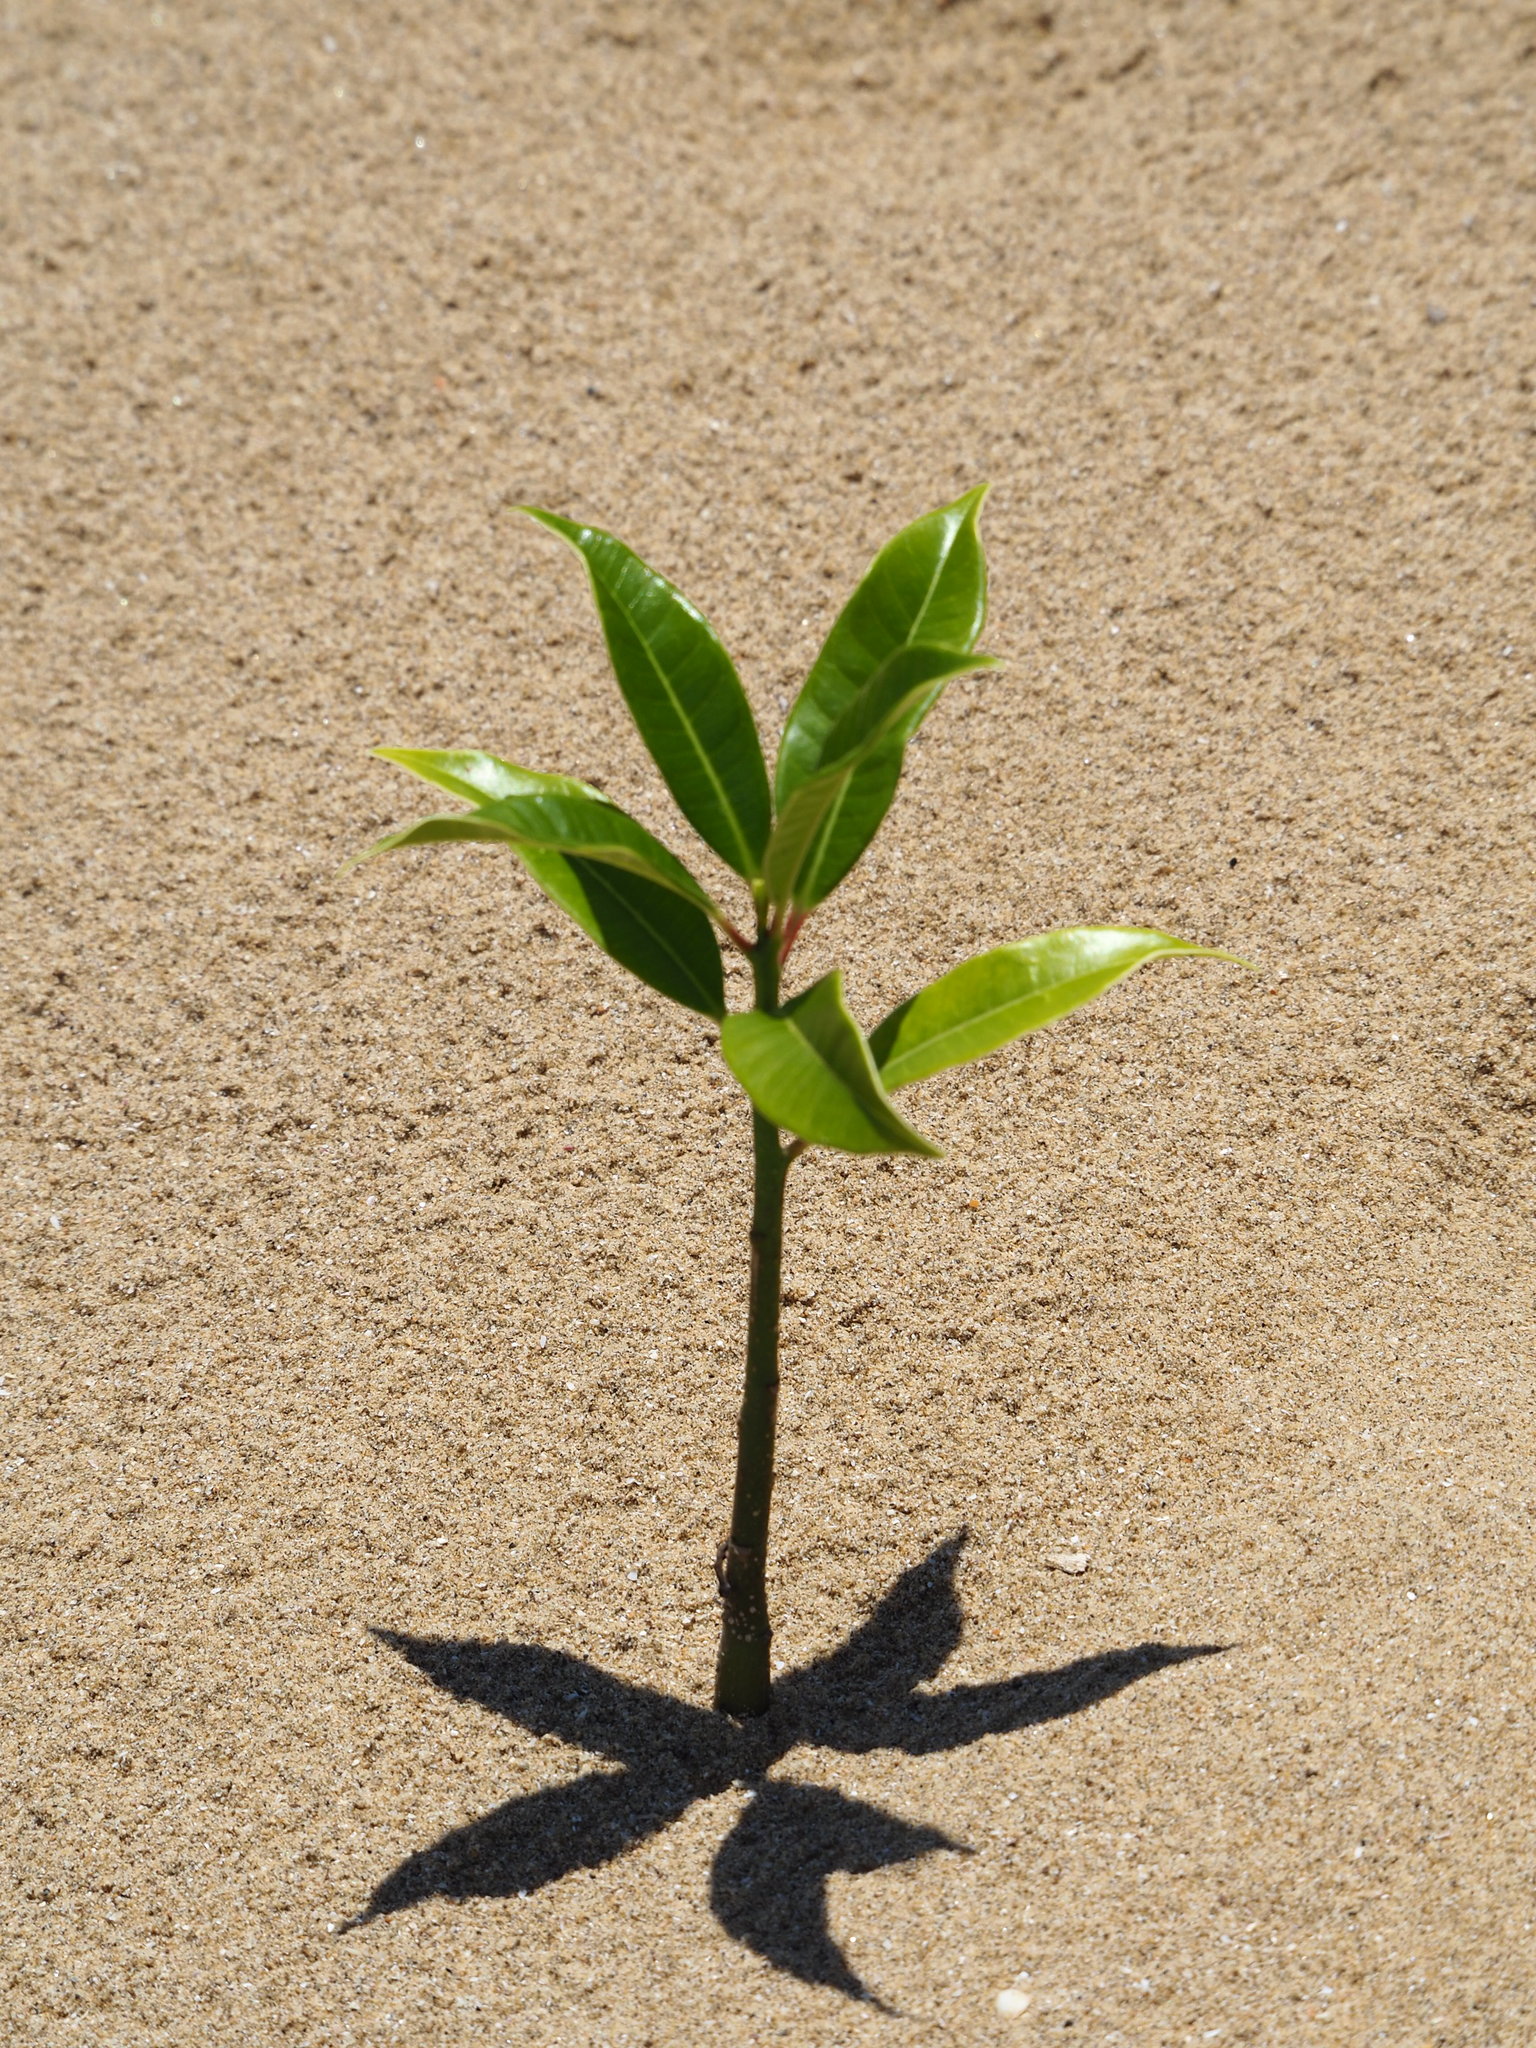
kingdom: Plantae
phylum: Tracheophyta
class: Magnoliopsida
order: Gentianales
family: Apocynaceae
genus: Cerbera
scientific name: Cerbera manghas
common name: Reva
